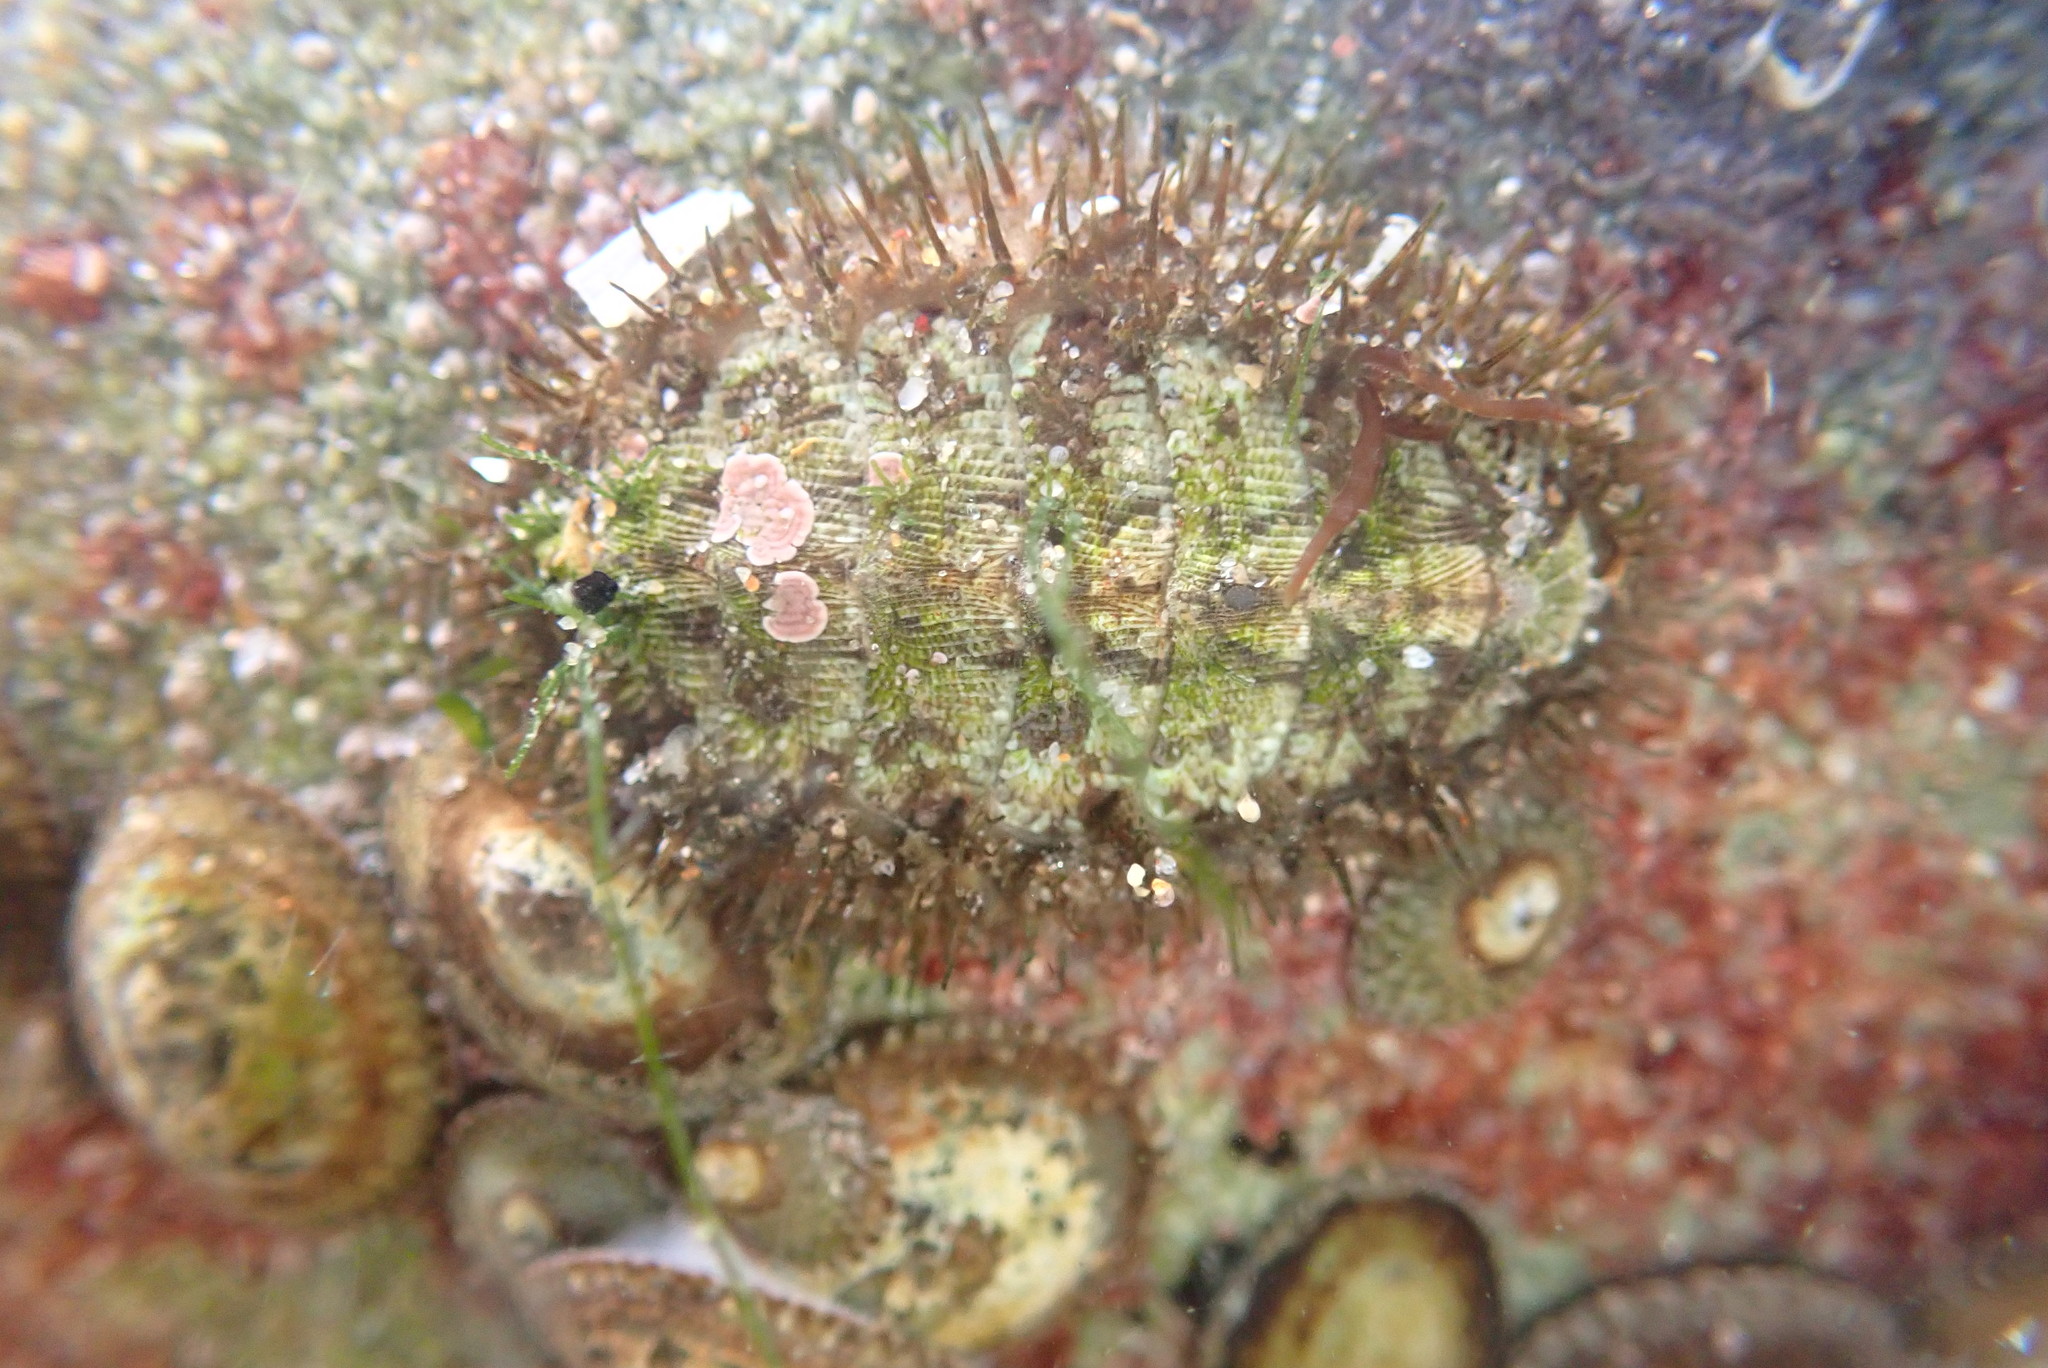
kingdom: Animalia
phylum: Mollusca
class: Polyplacophora
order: Chitonida
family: Mopaliidae
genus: Mopalia
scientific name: Mopalia muscosa
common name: Mossy chiton
